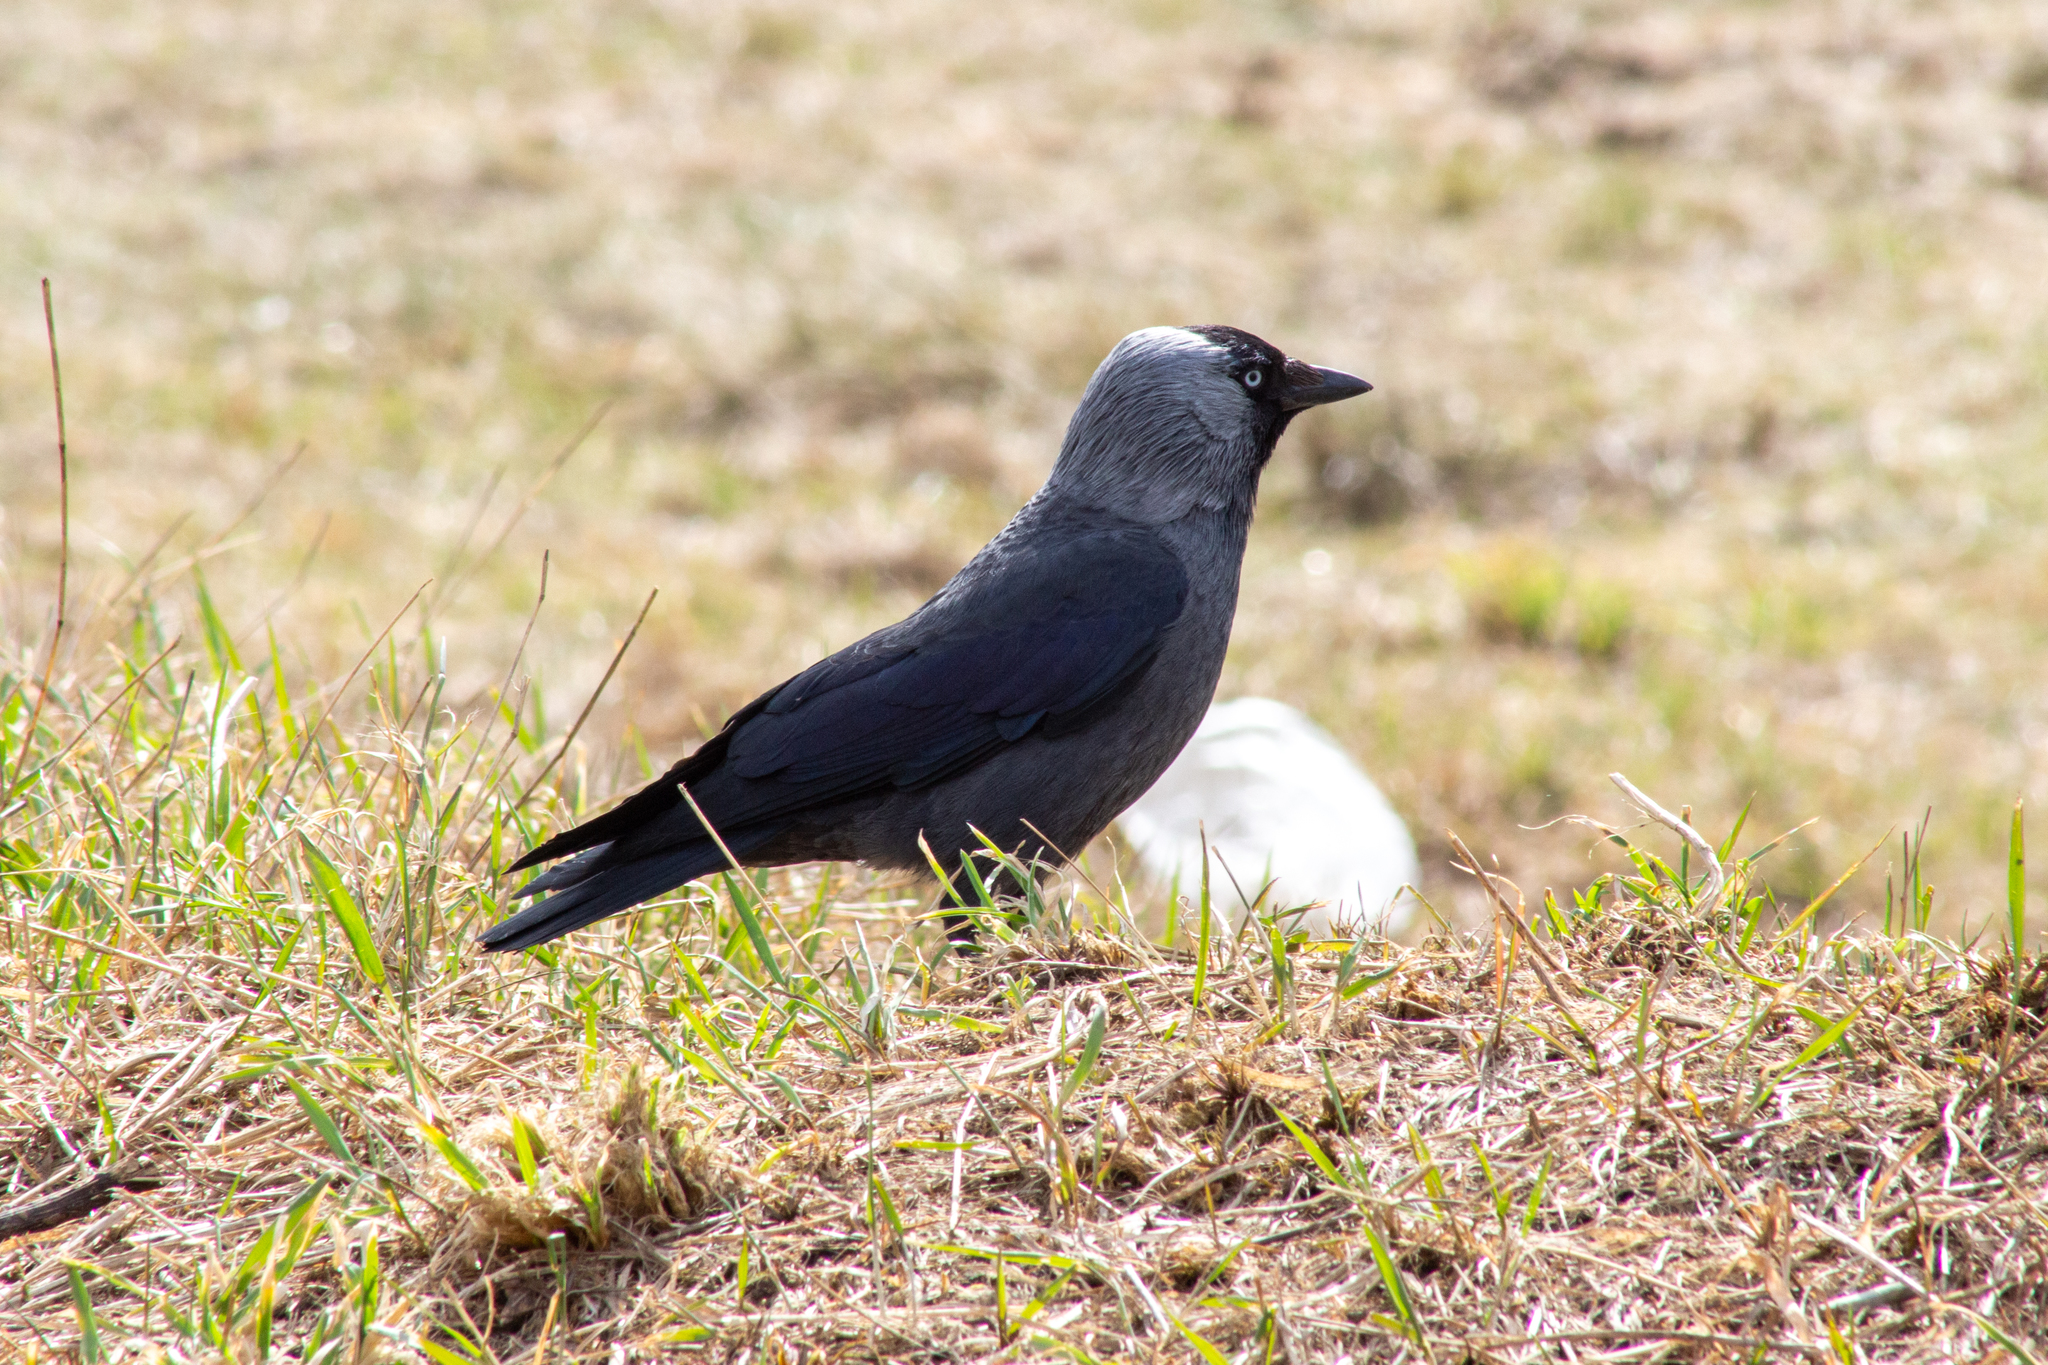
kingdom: Animalia
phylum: Chordata
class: Aves
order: Passeriformes
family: Corvidae
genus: Coloeus
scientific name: Coloeus monedula
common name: Western jackdaw
